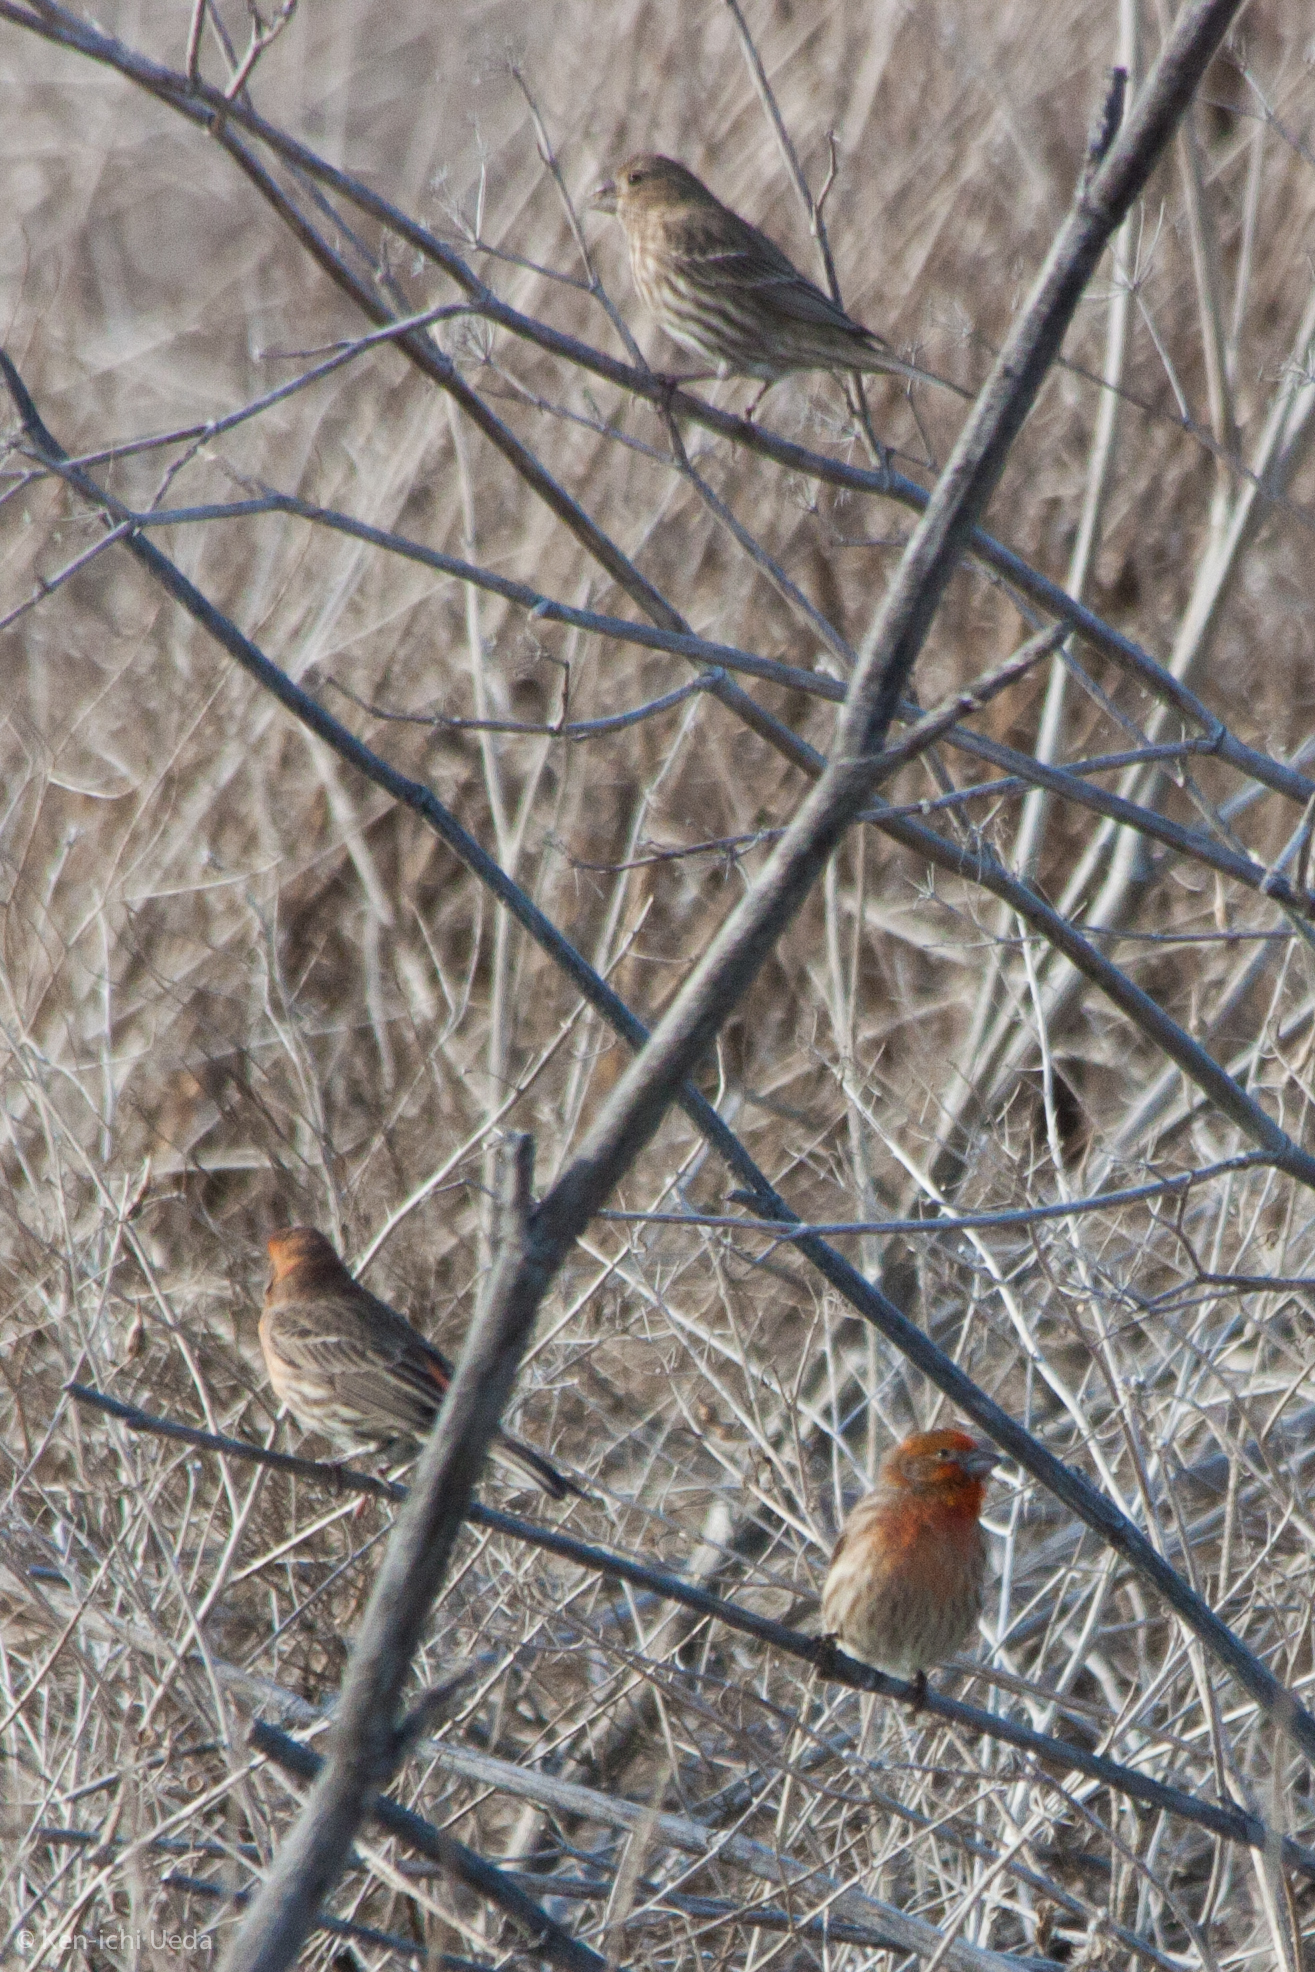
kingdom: Animalia
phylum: Chordata
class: Aves
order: Passeriformes
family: Fringillidae
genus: Haemorhous
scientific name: Haemorhous mexicanus
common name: House finch
